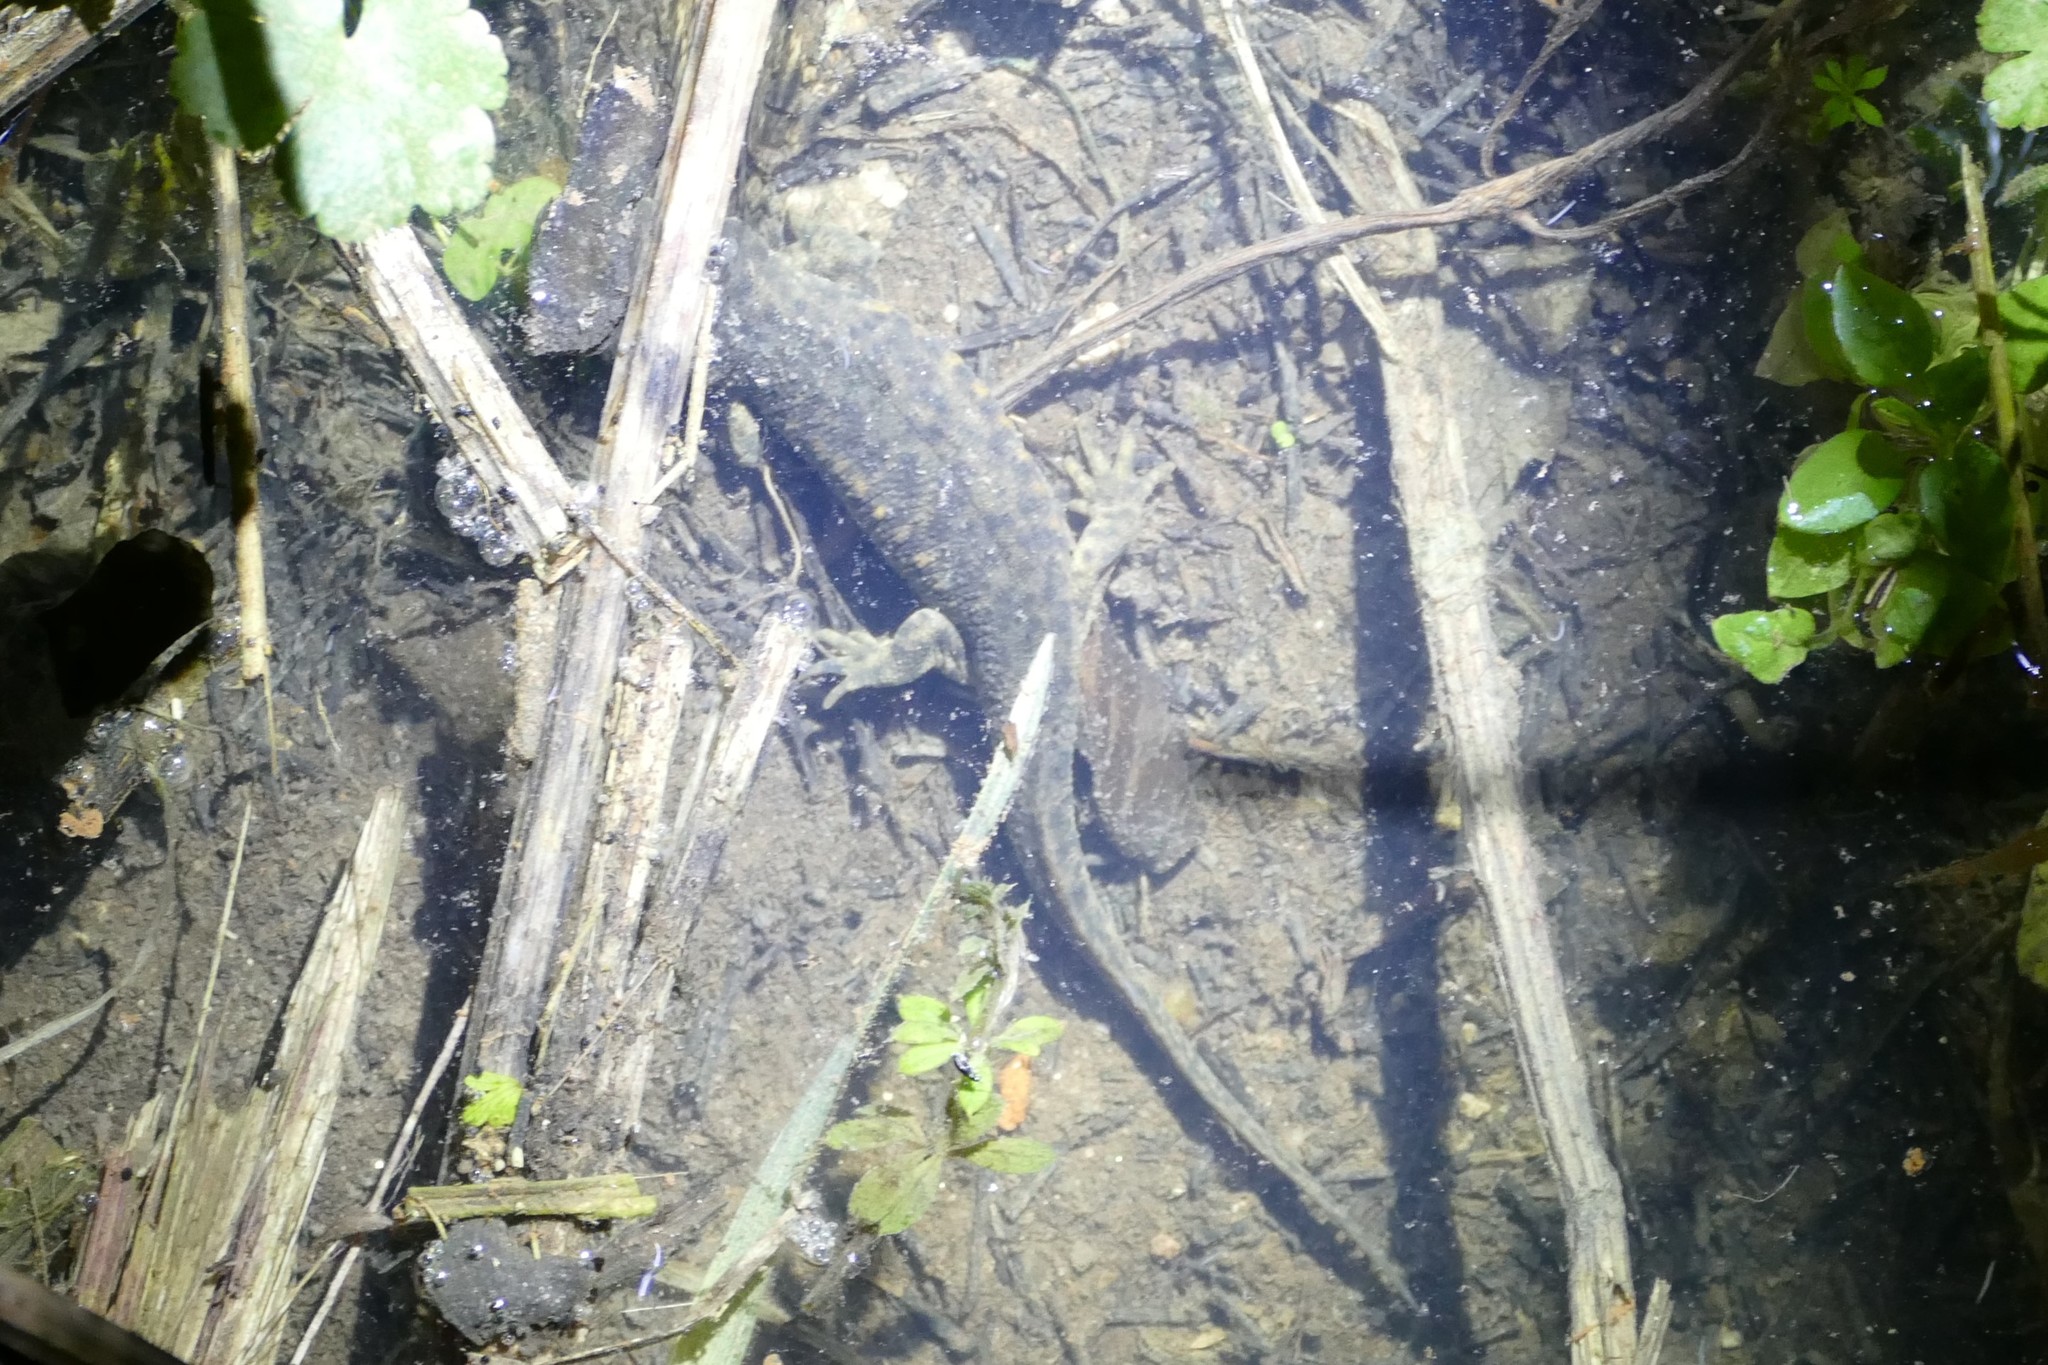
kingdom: Animalia
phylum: Chordata
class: Amphibia
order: Caudata
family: Salamandridae
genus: Pleurodeles
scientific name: Pleurodeles waltl
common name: Iberian ribbed newt
